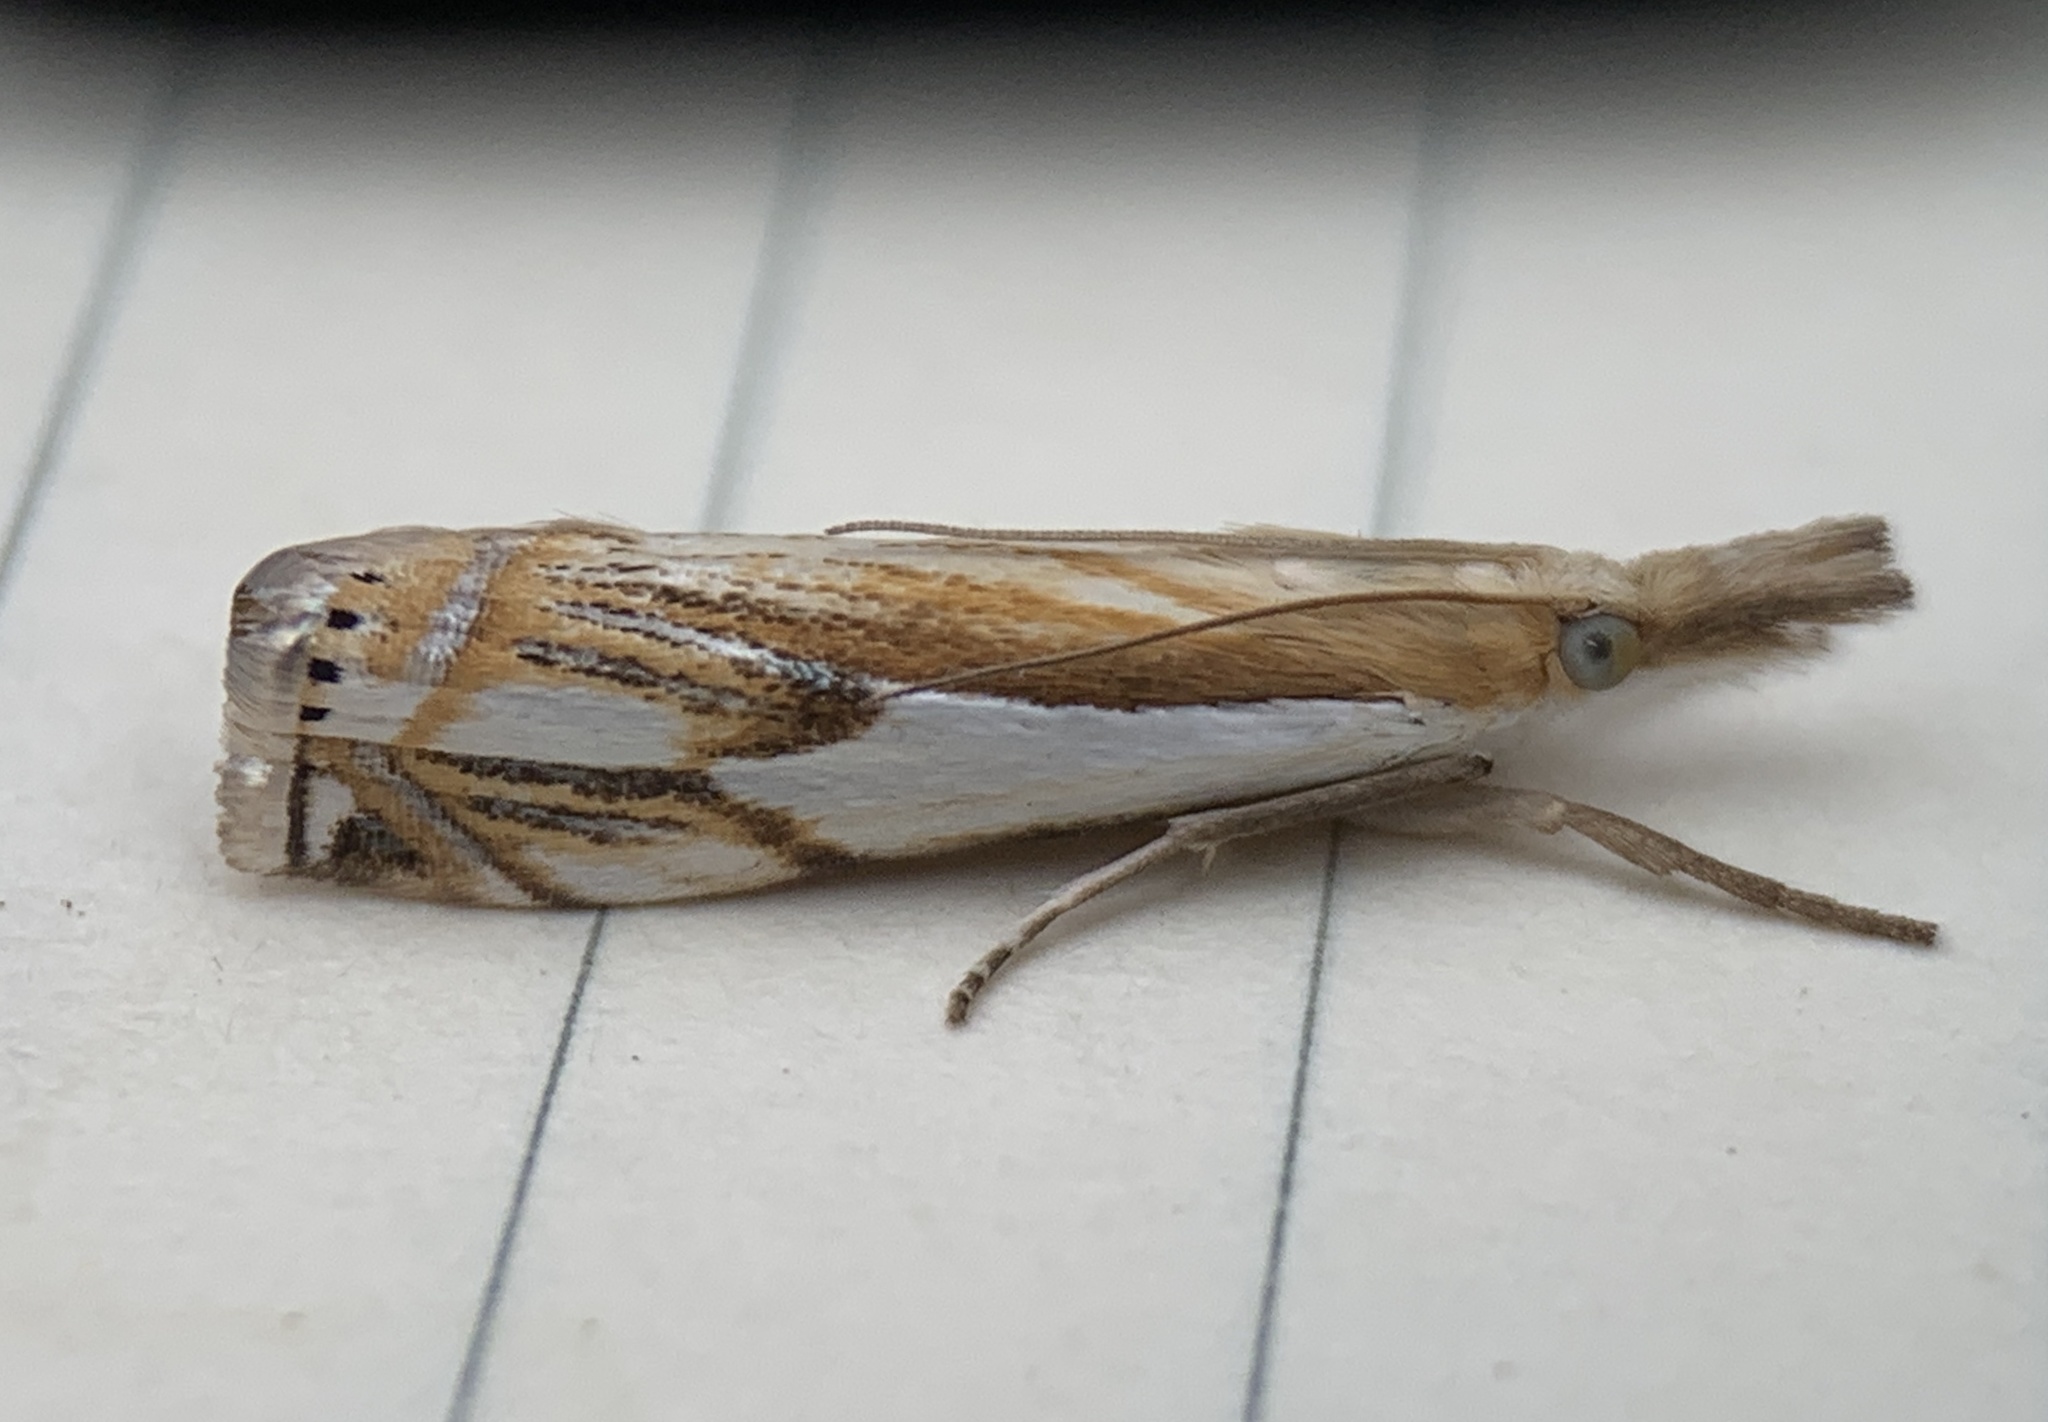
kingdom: Animalia
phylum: Arthropoda
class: Insecta
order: Lepidoptera
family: Crambidae
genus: Crambus
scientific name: Crambus agitatellus
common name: Double-banded grass-veneer
